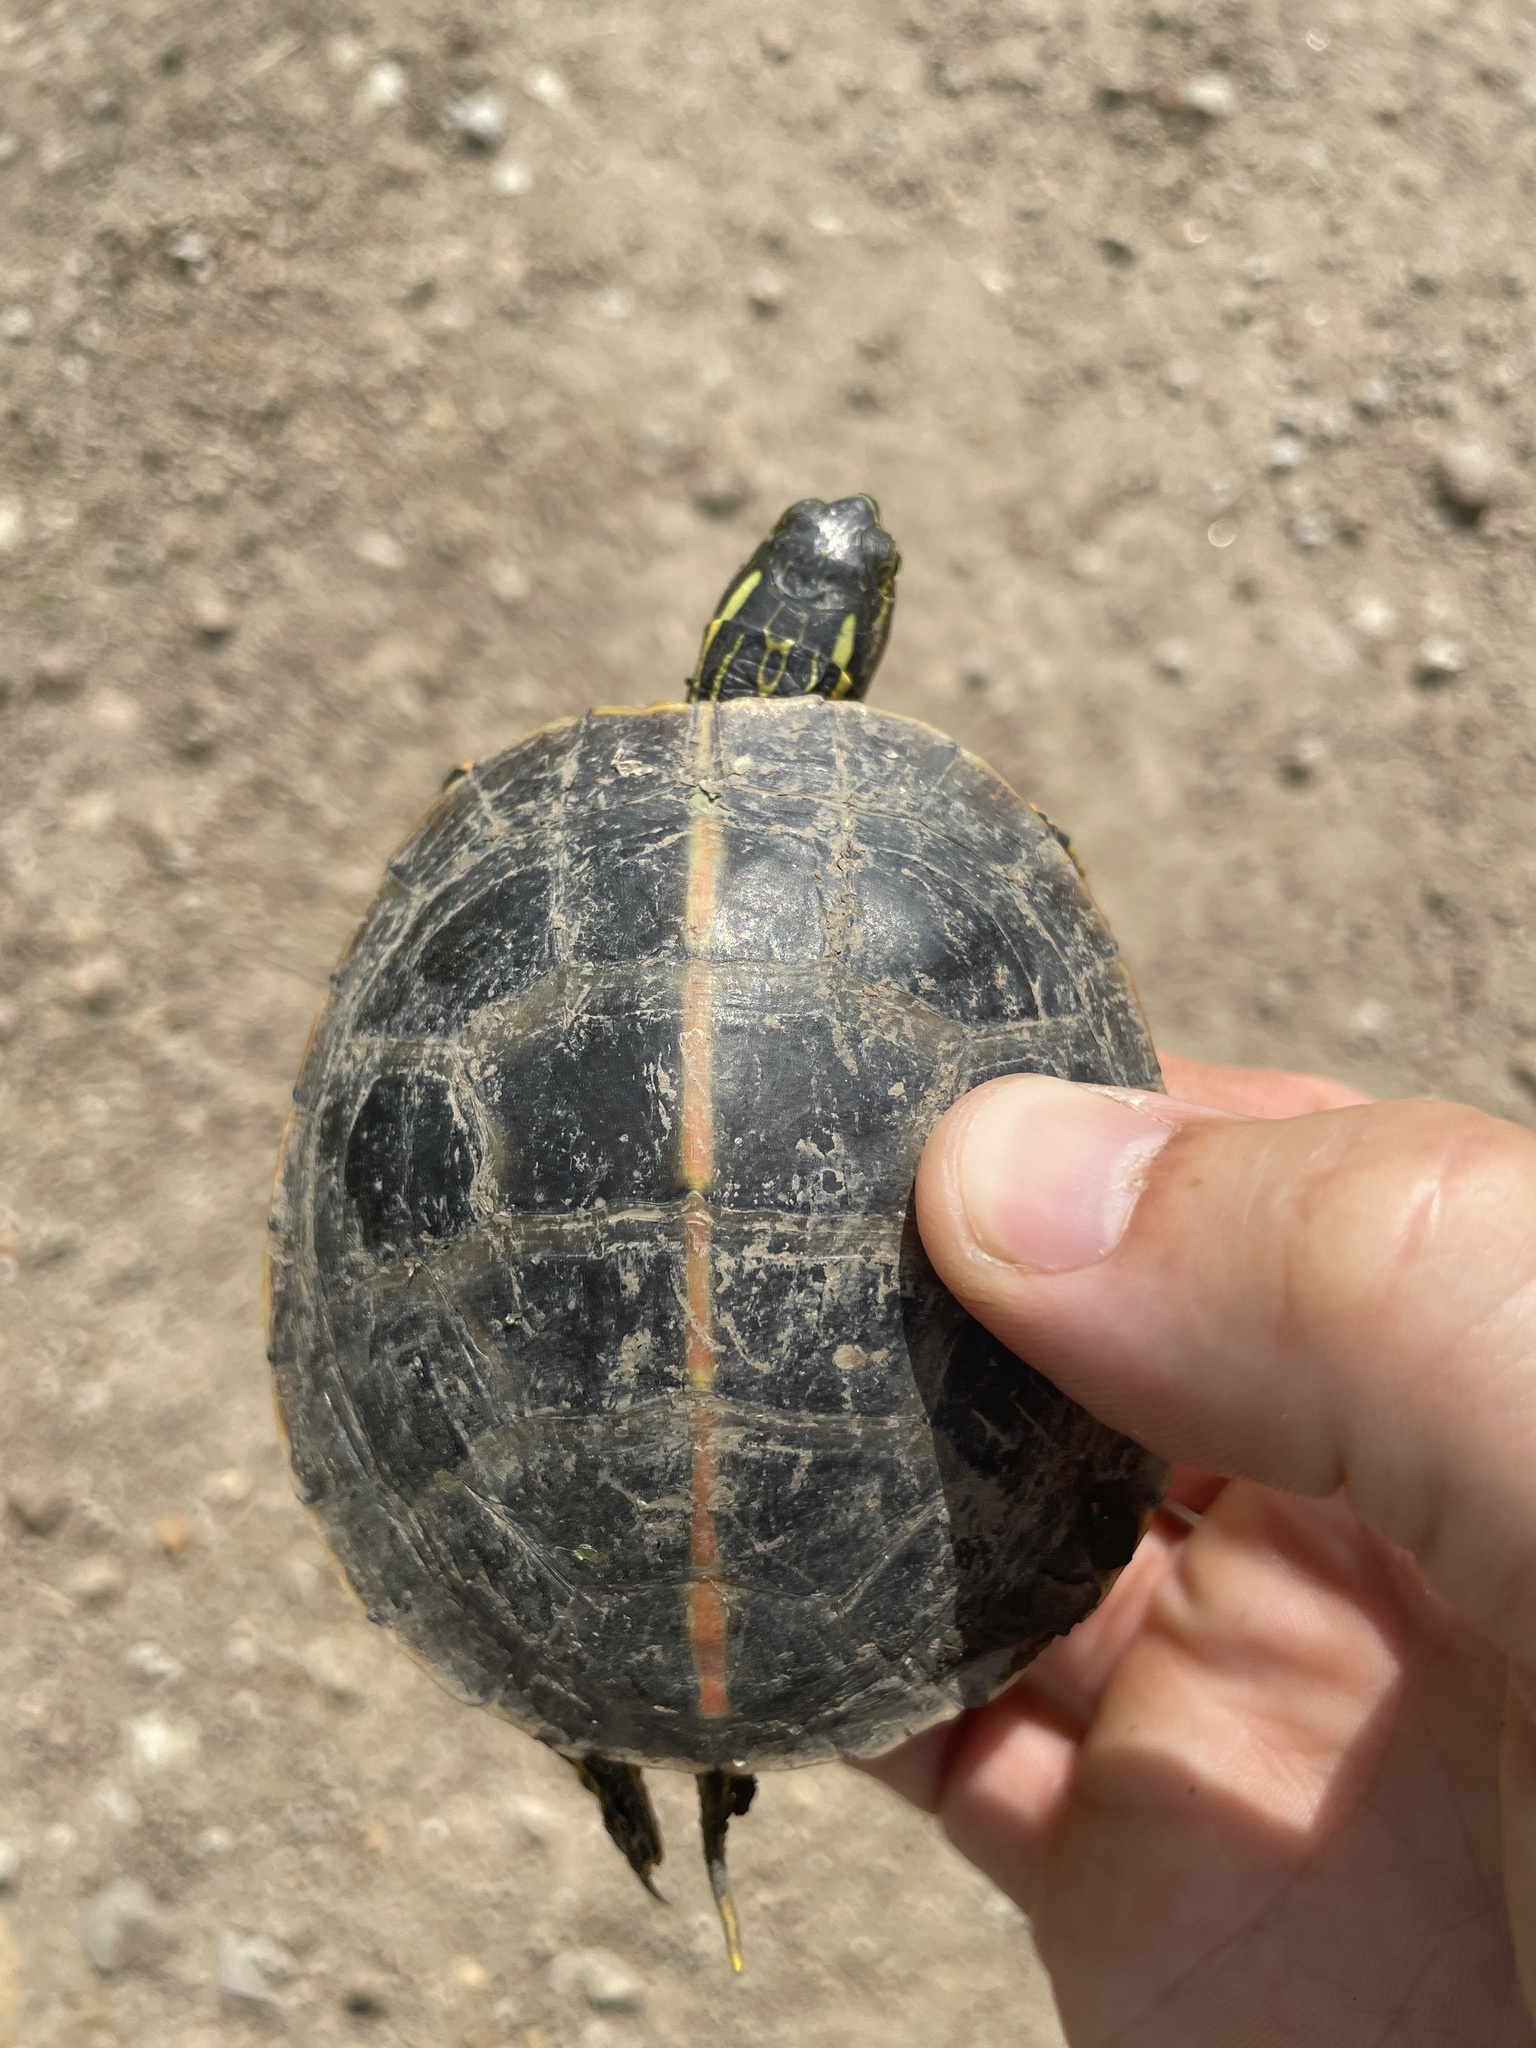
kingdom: Animalia
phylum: Chordata
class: Testudines
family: Emydidae
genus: Chrysemys
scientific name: Chrysemys dorsalis
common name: Southern painted turtle
